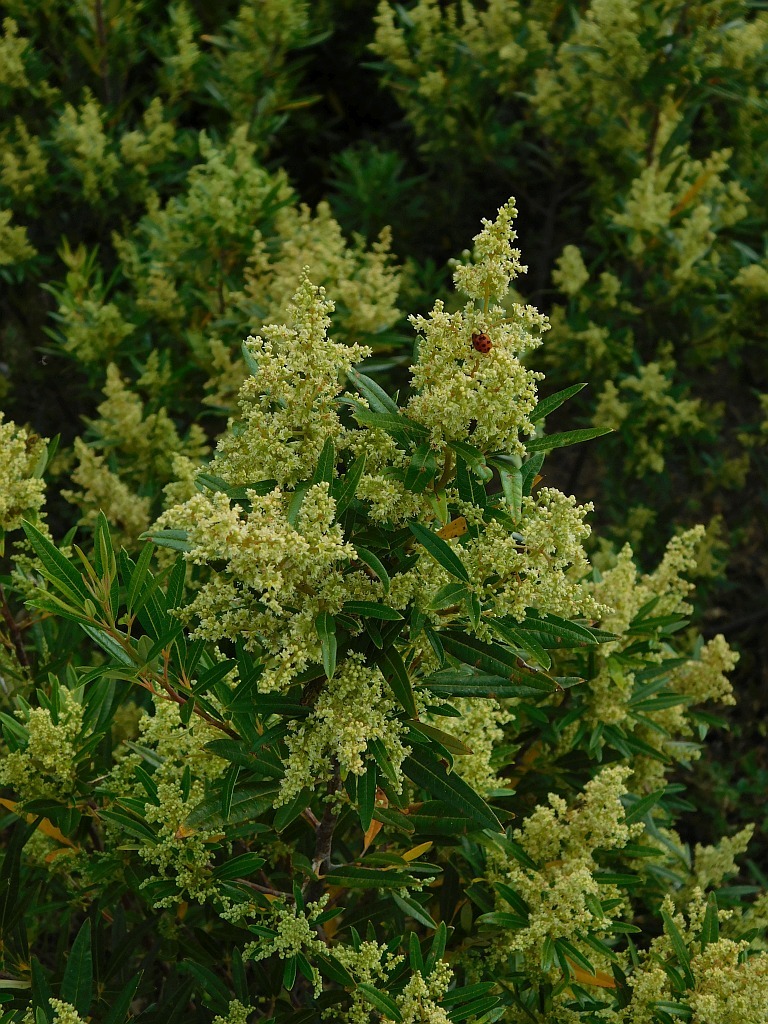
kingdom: Plantae
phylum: Tracheophyta
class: Magnoliopsida
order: Sapindales
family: Anacardiaceae
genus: Searsia
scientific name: Searsia angustifolia
